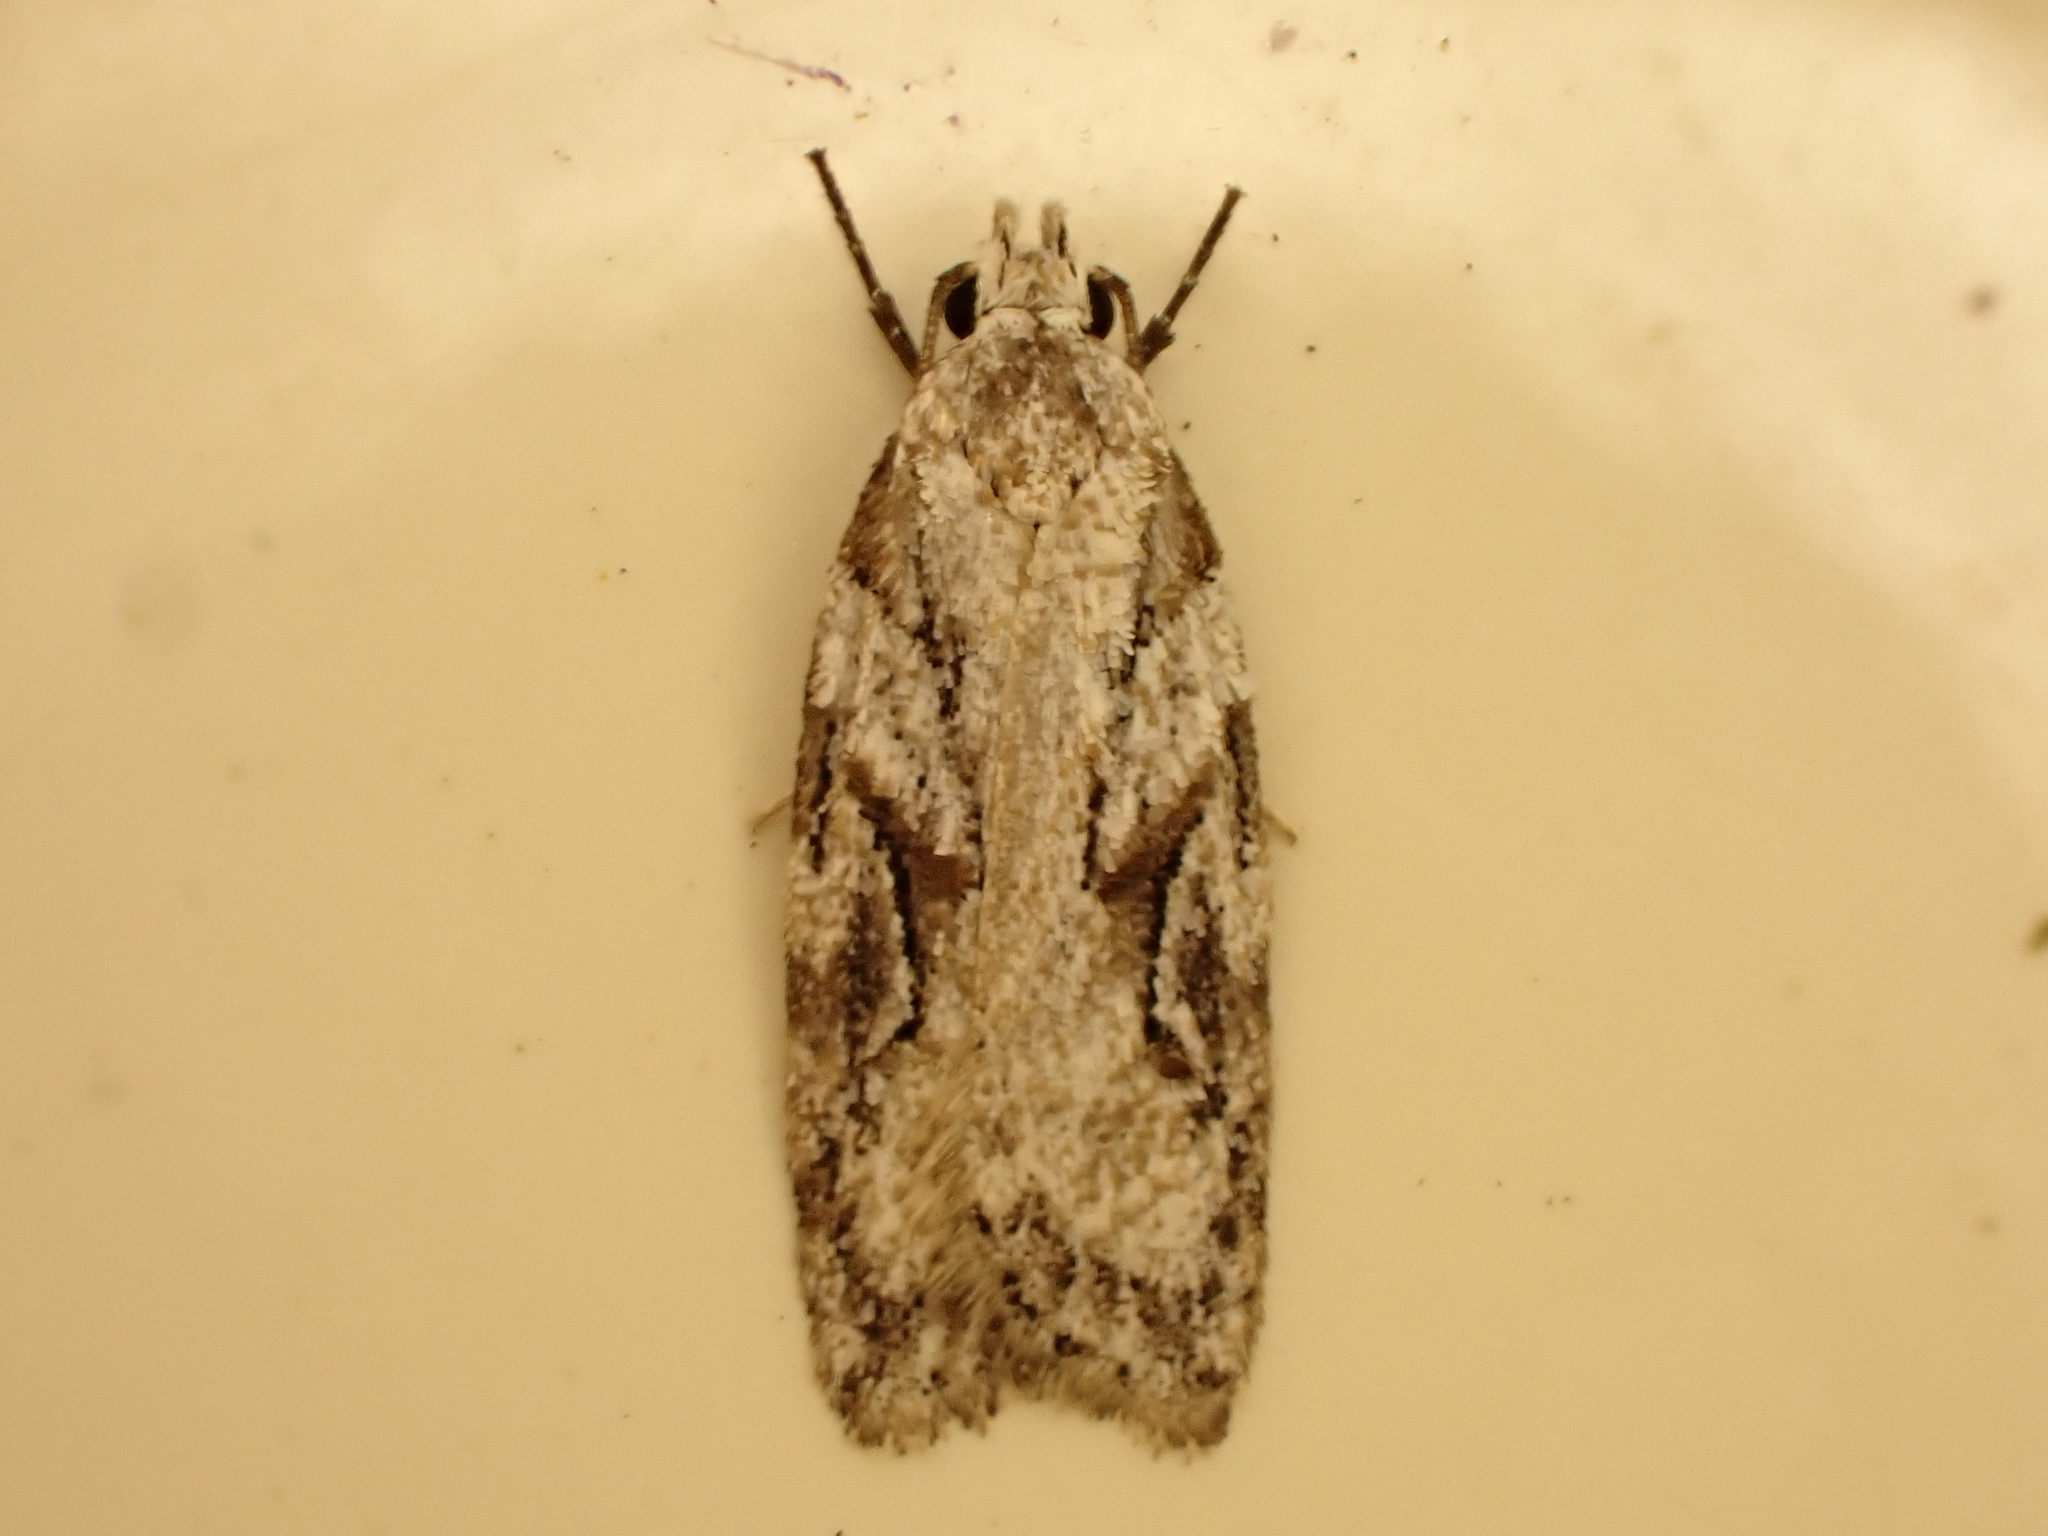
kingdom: Animalia
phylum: Arthropoda
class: Insecta
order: Lepidoptera
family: Oecophoridae
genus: Izatha
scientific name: Izatha mesoschista
